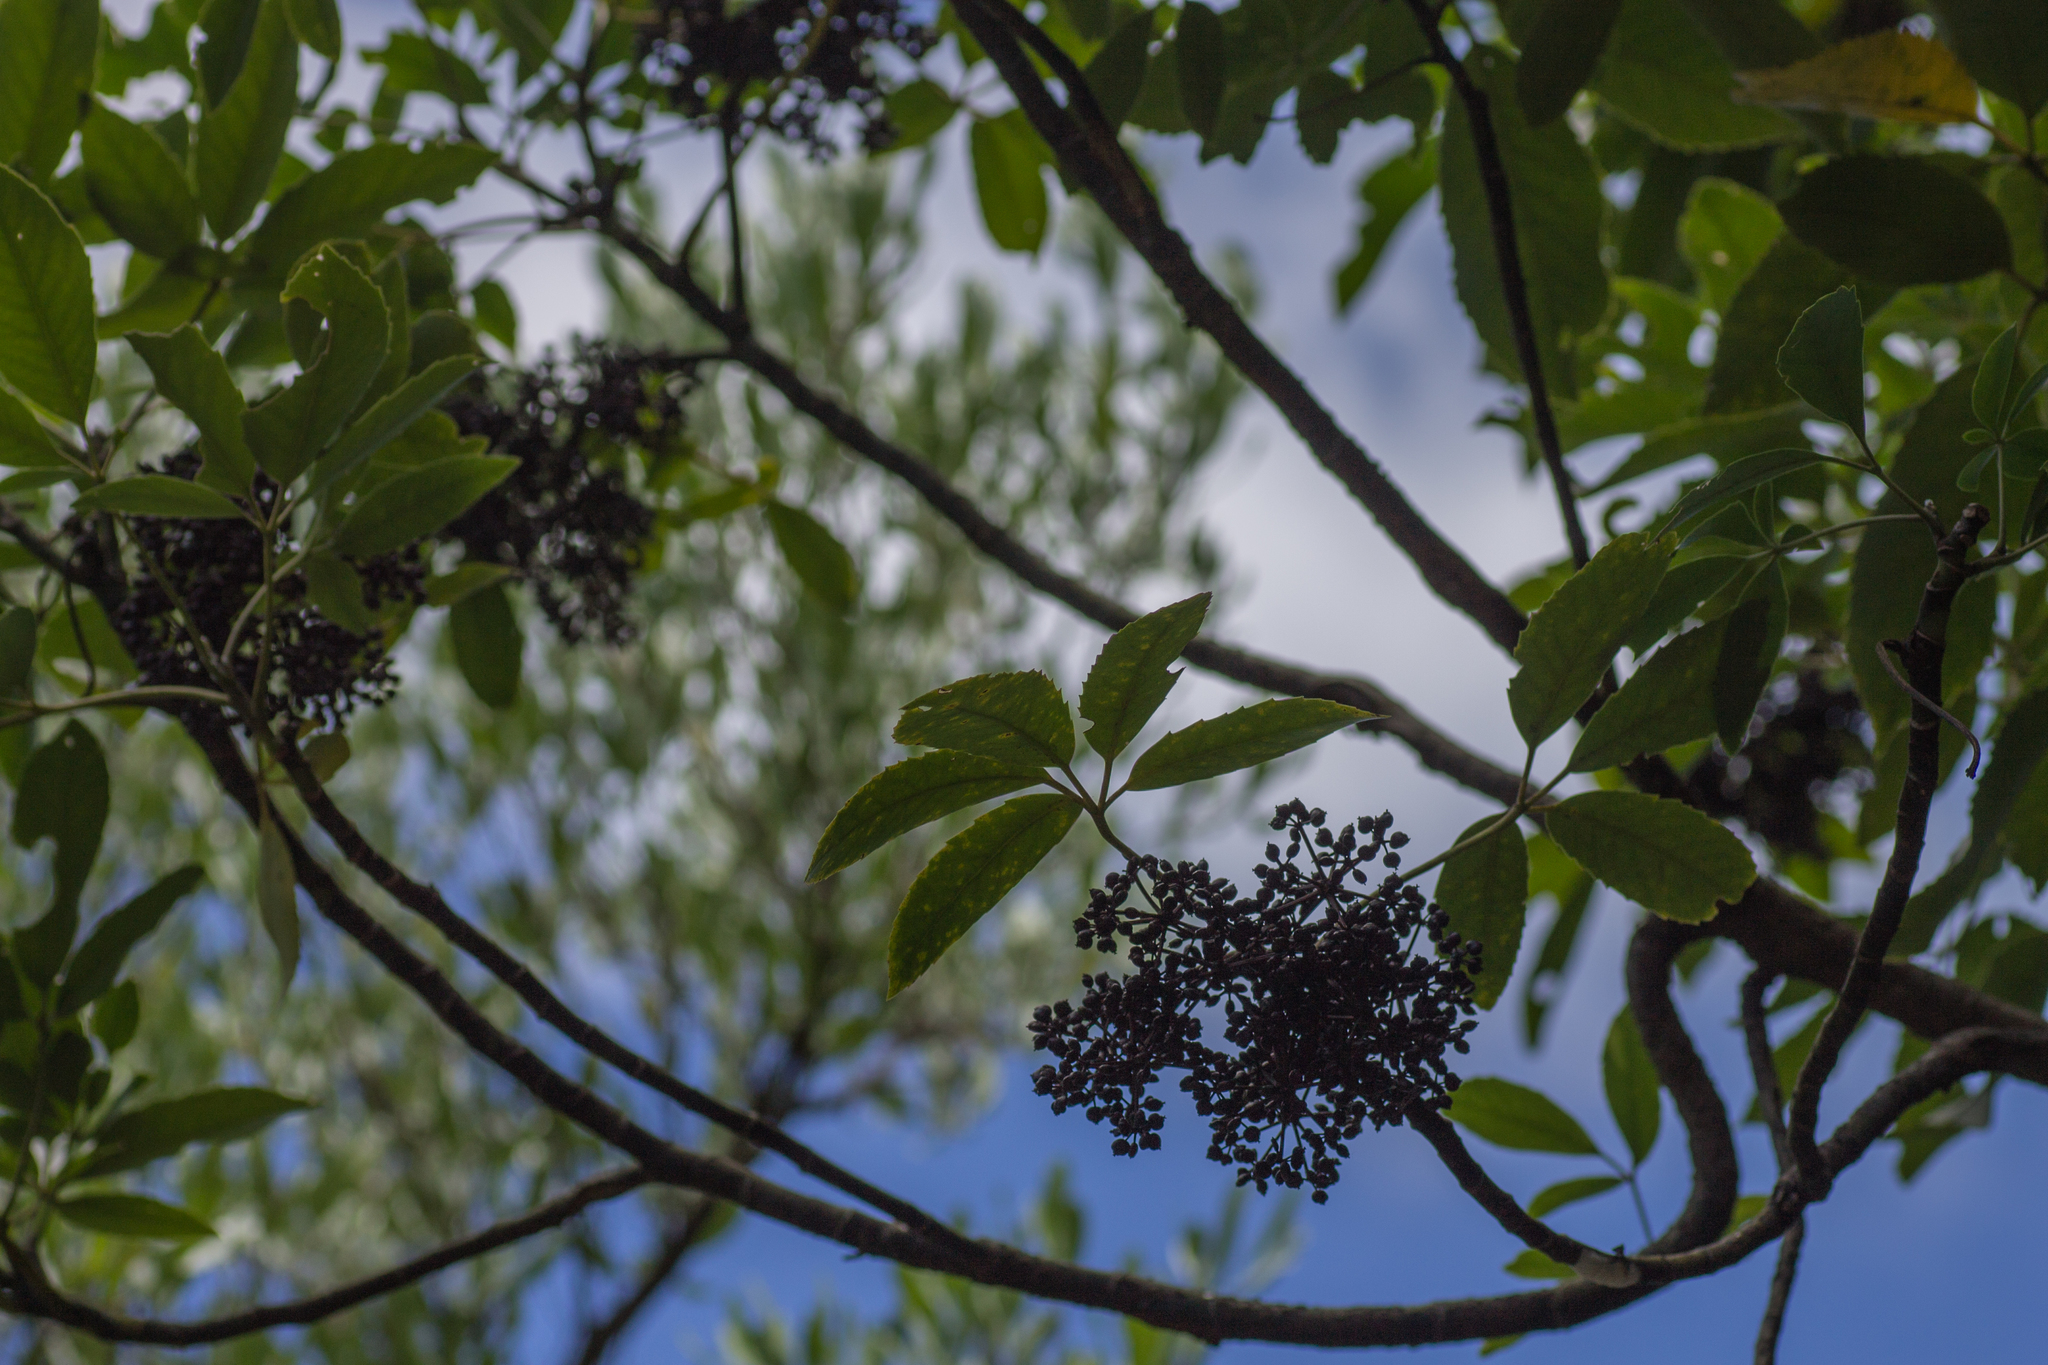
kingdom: Plantae
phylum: Tracheophyta
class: Magnoliopsida
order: Apiales
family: Araliaceae
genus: Neopanax
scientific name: Neopanax arboreus
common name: Five-fingers
